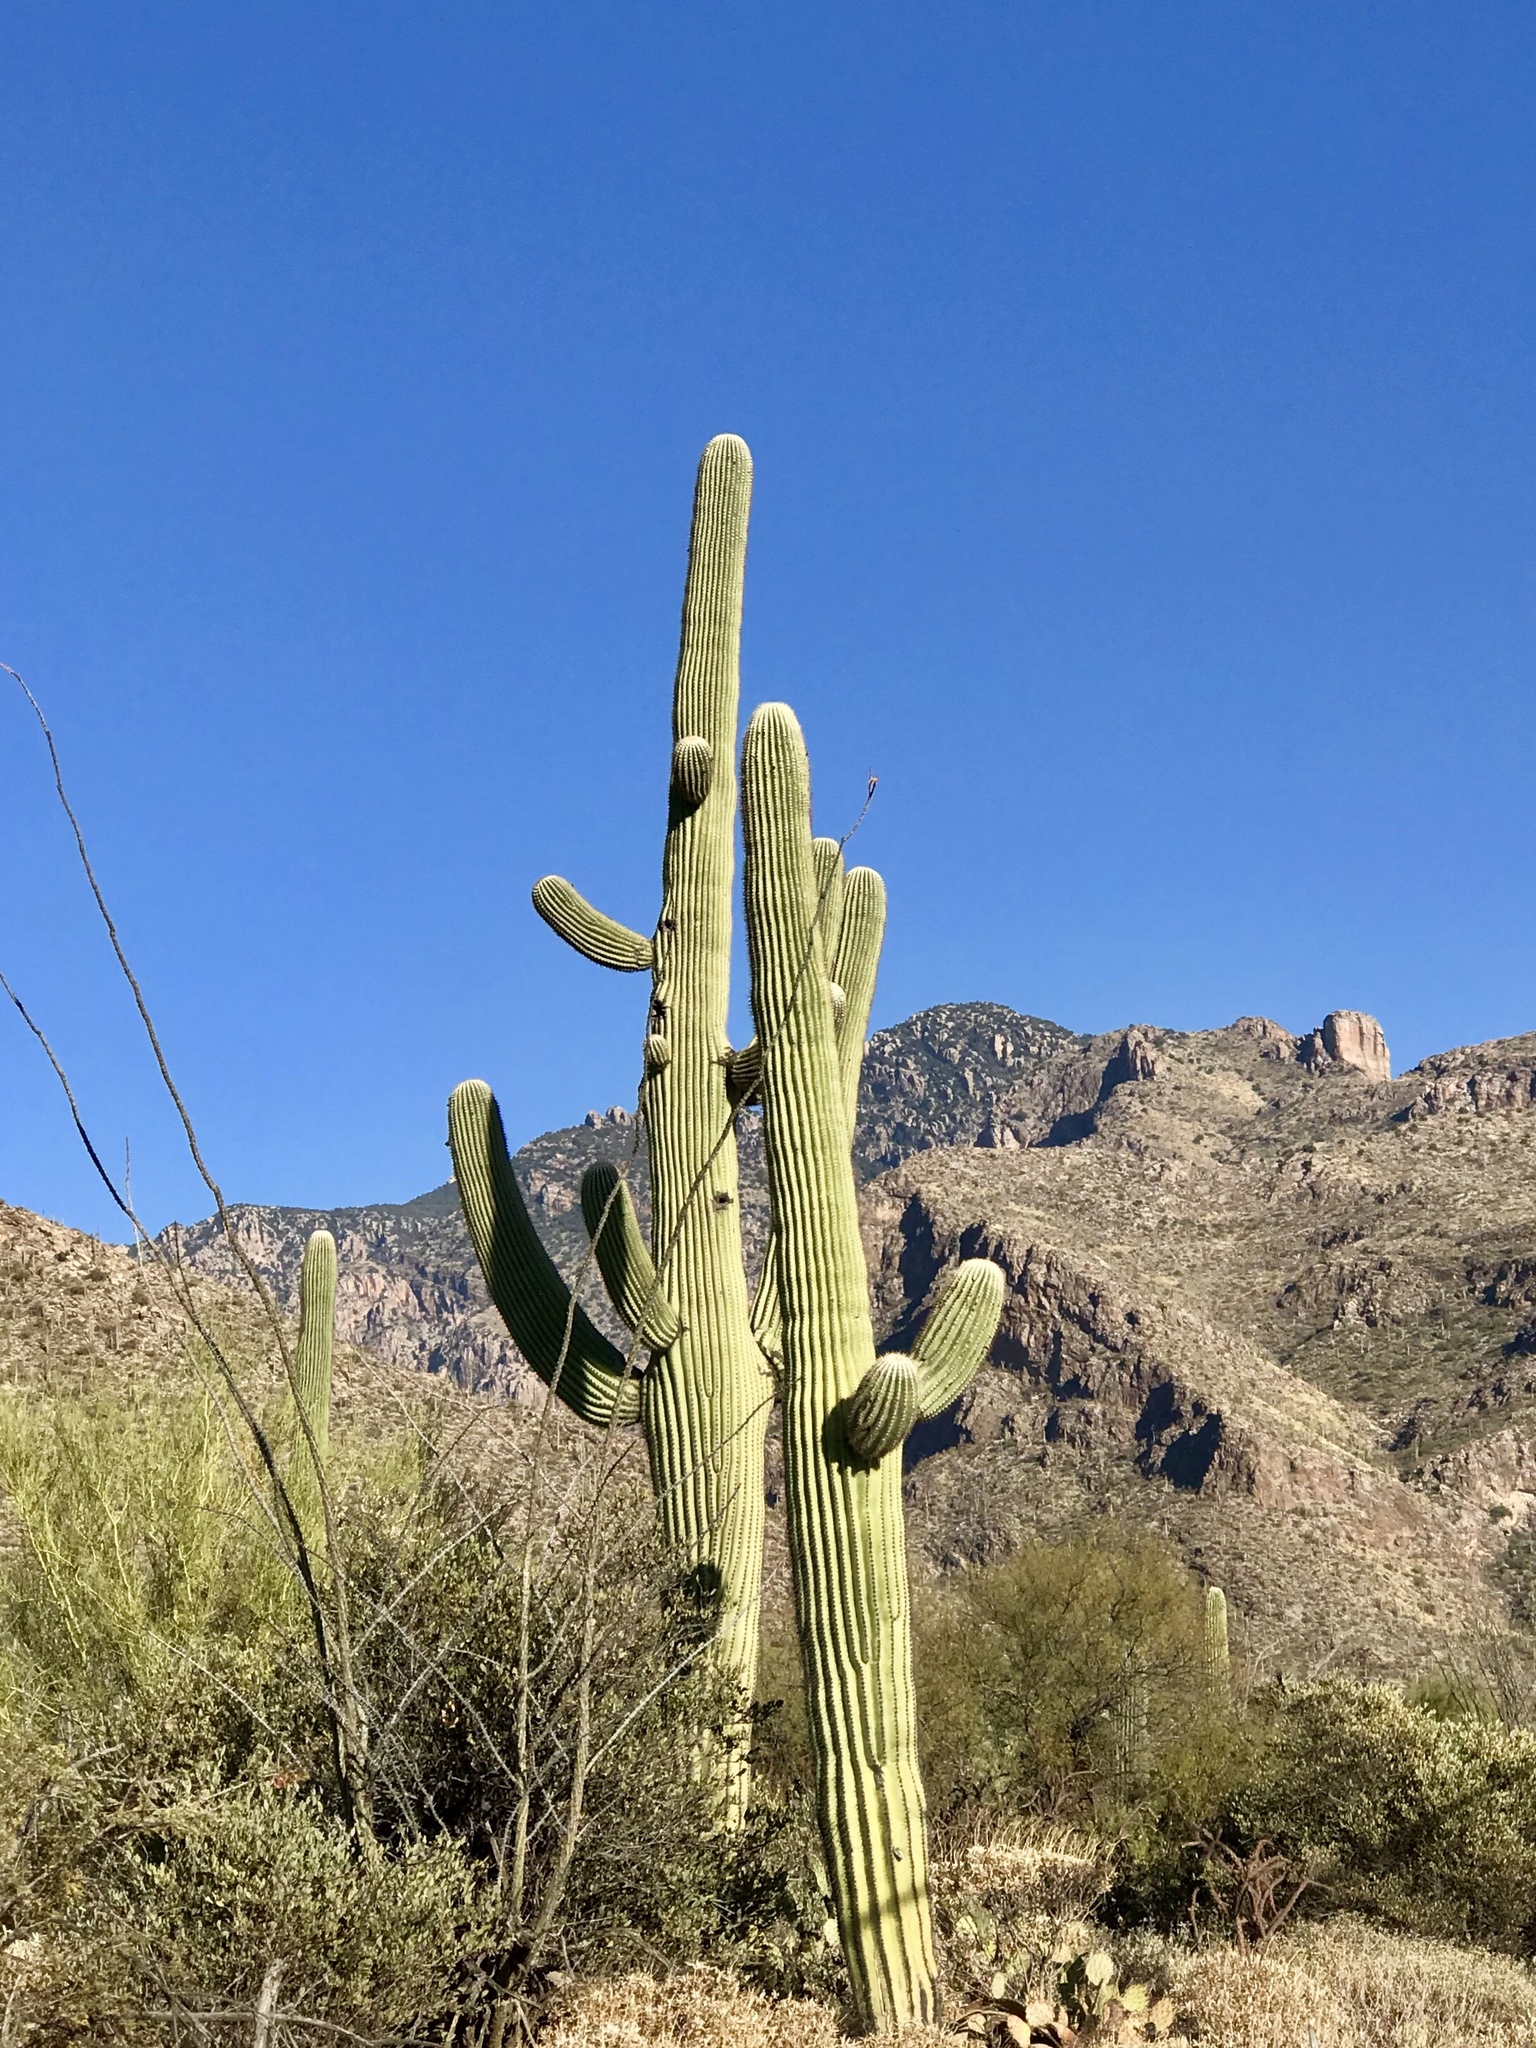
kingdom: Plantae
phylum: Tracheophyta
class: Magnoliopsida
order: Caryophyllales
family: Cactaceae
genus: Carnegiea
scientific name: Carnegiea gigantea
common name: Saguaro
